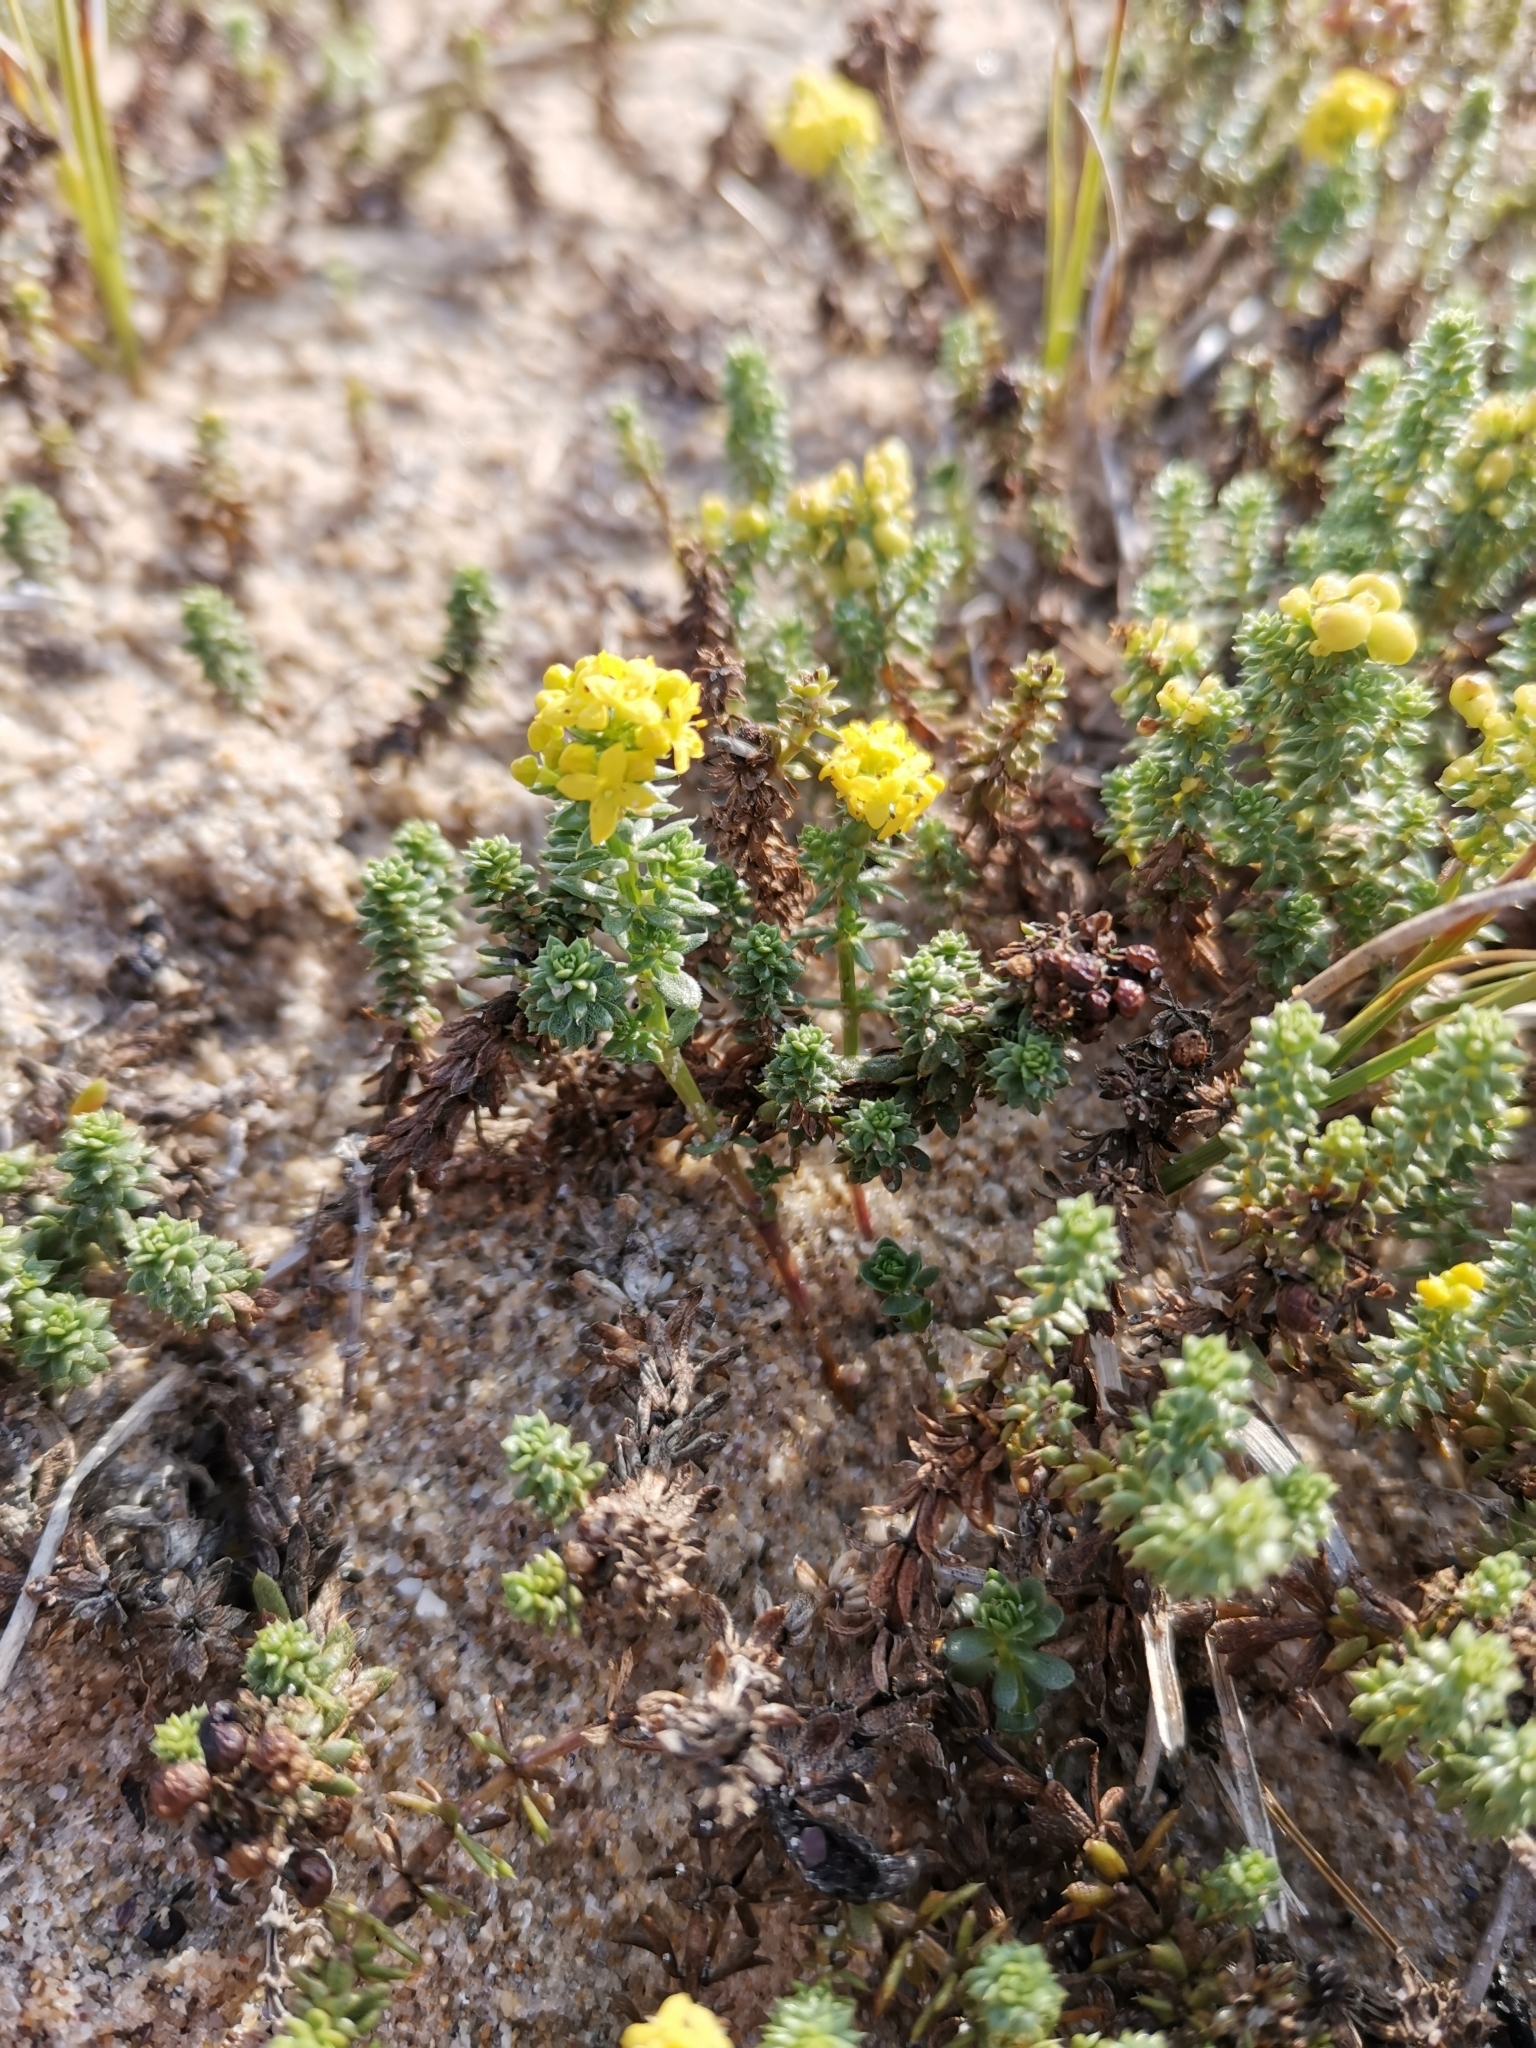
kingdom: Plantae
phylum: Tracheophyta
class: Magnoliopsida
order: Gentianales
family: Rubiaceae
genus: Galium
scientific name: Galium arenarium
